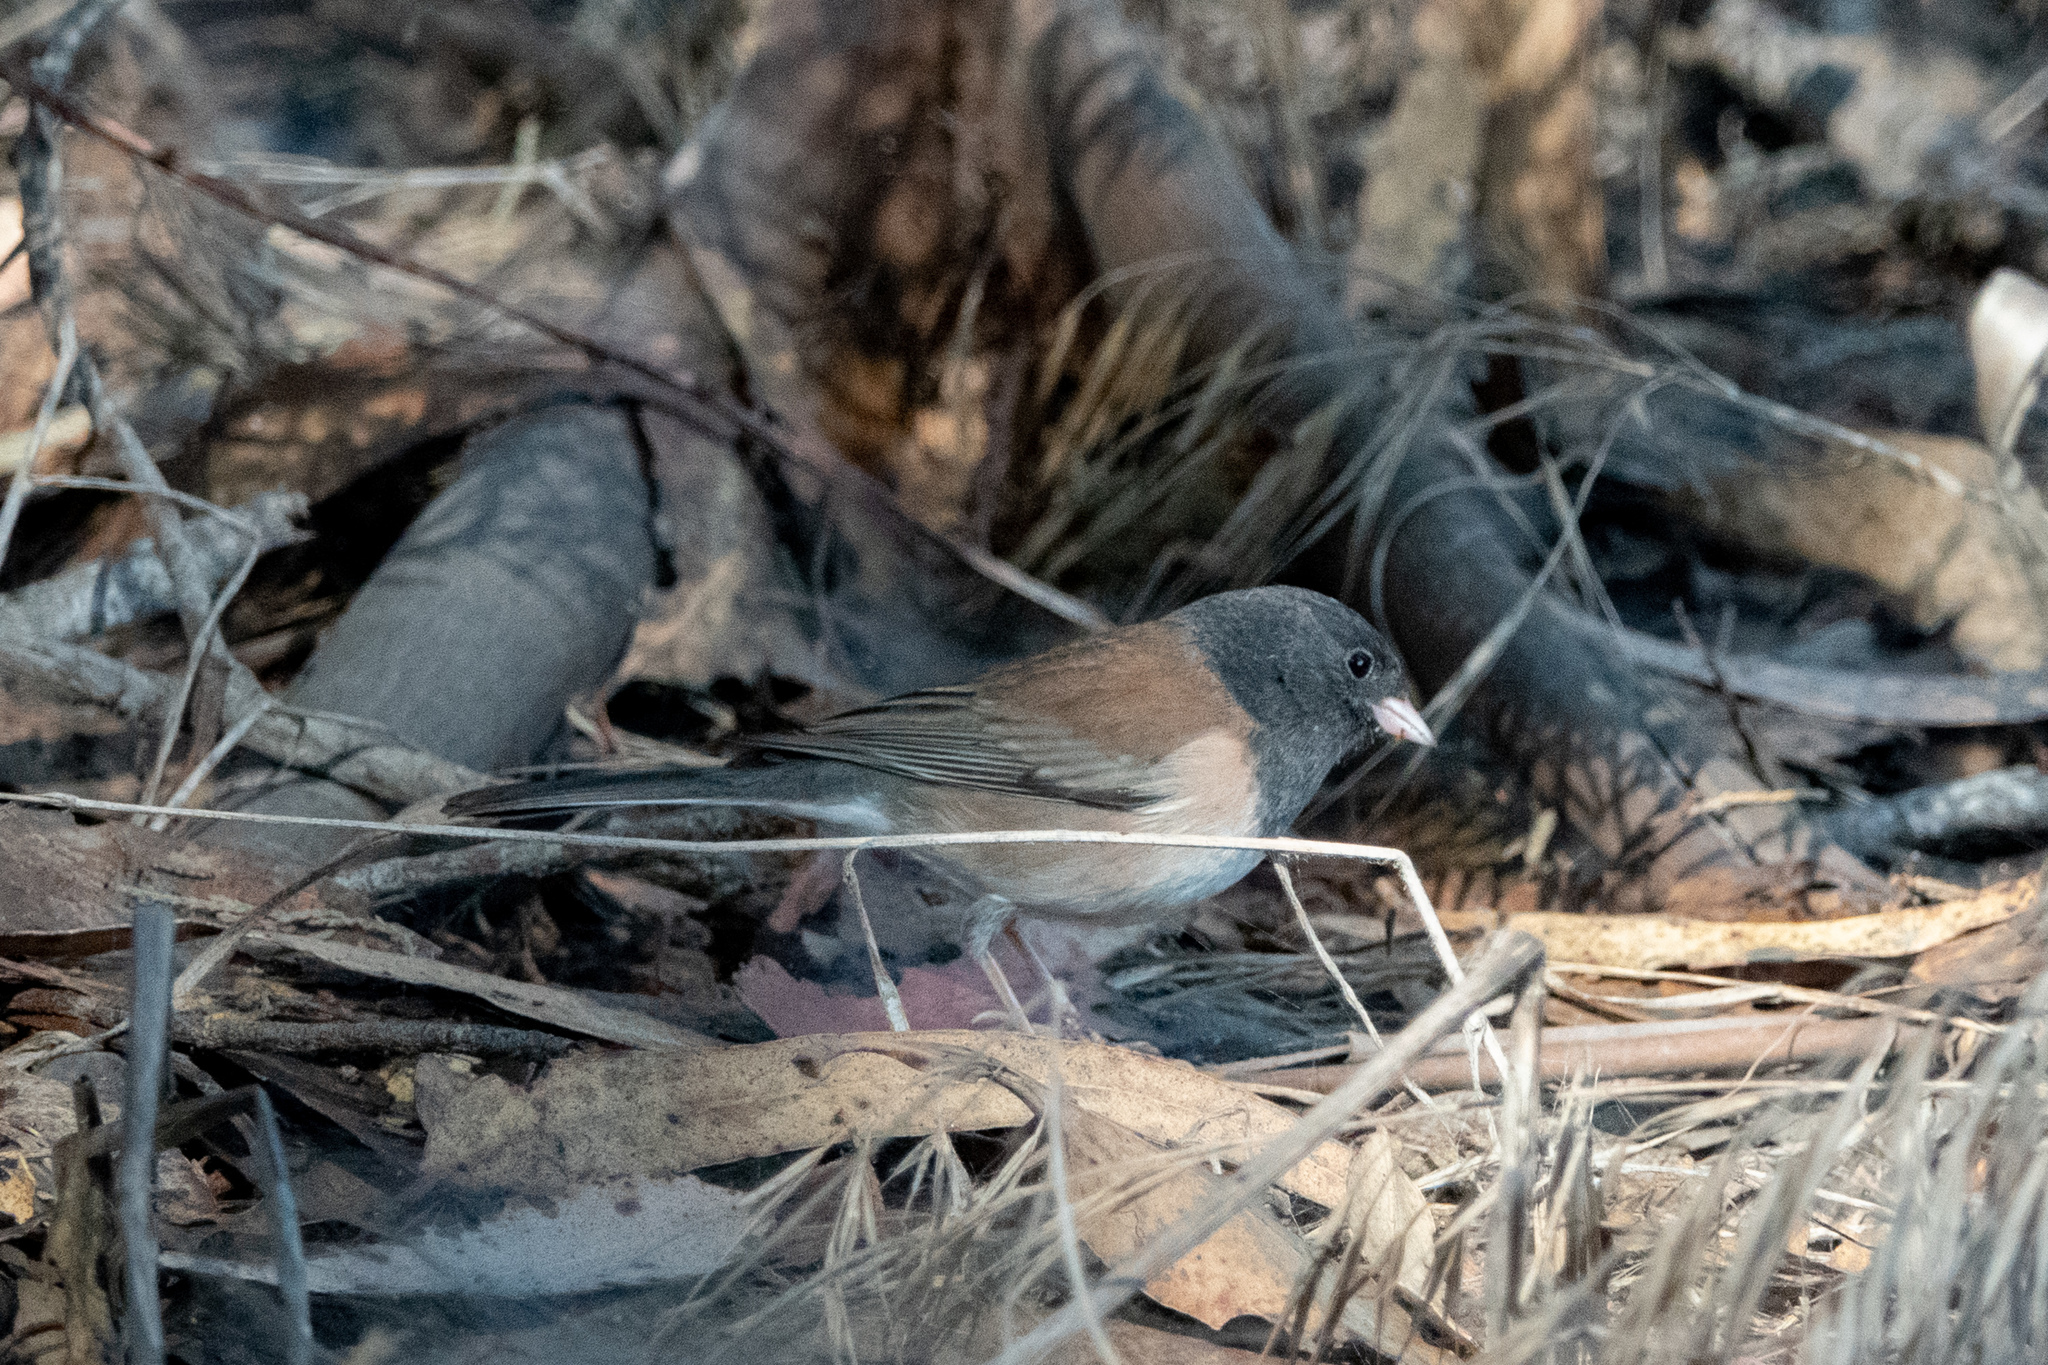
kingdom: Animalia
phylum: Chordata
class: Aves
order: Passeriformes
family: Passerellidae
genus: Junco
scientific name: Junco hyemalis
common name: Dark-eyed junco
